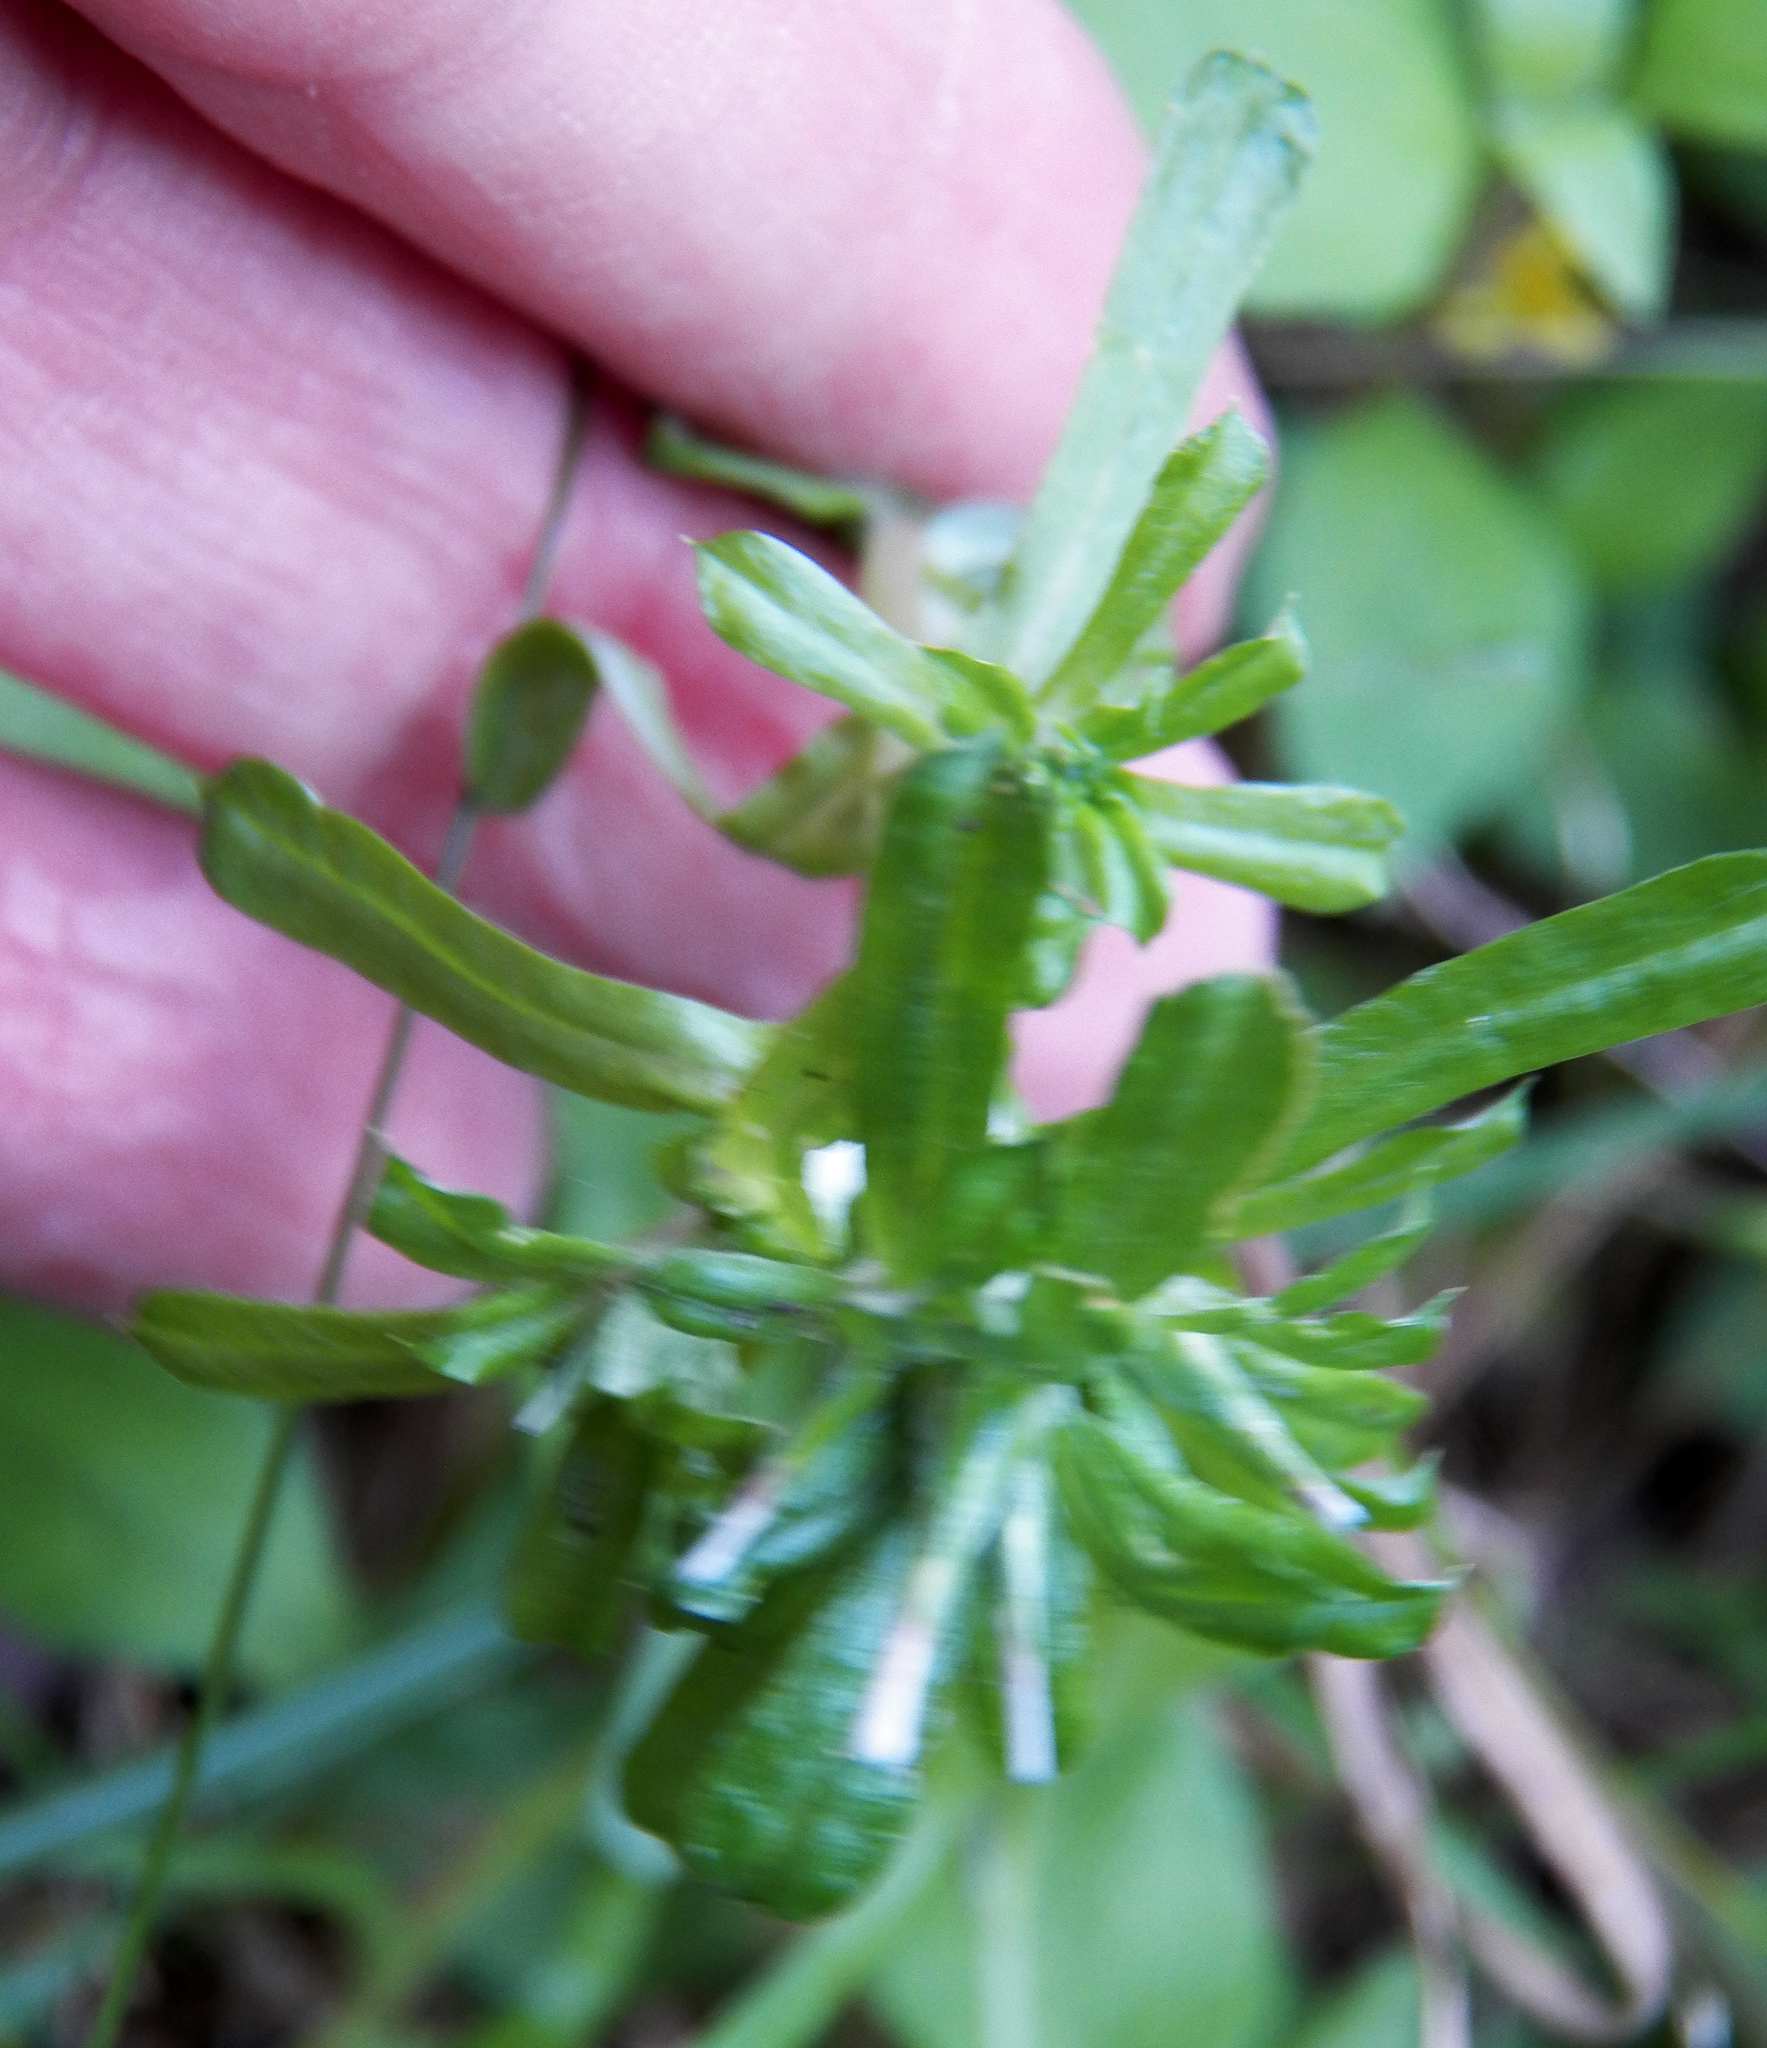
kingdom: Plantae
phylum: Tracheophyta
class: Magnoliopsida
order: Asterales
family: Asteraceae
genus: Facelis
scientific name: Facelis retusa
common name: Annual trampweed
